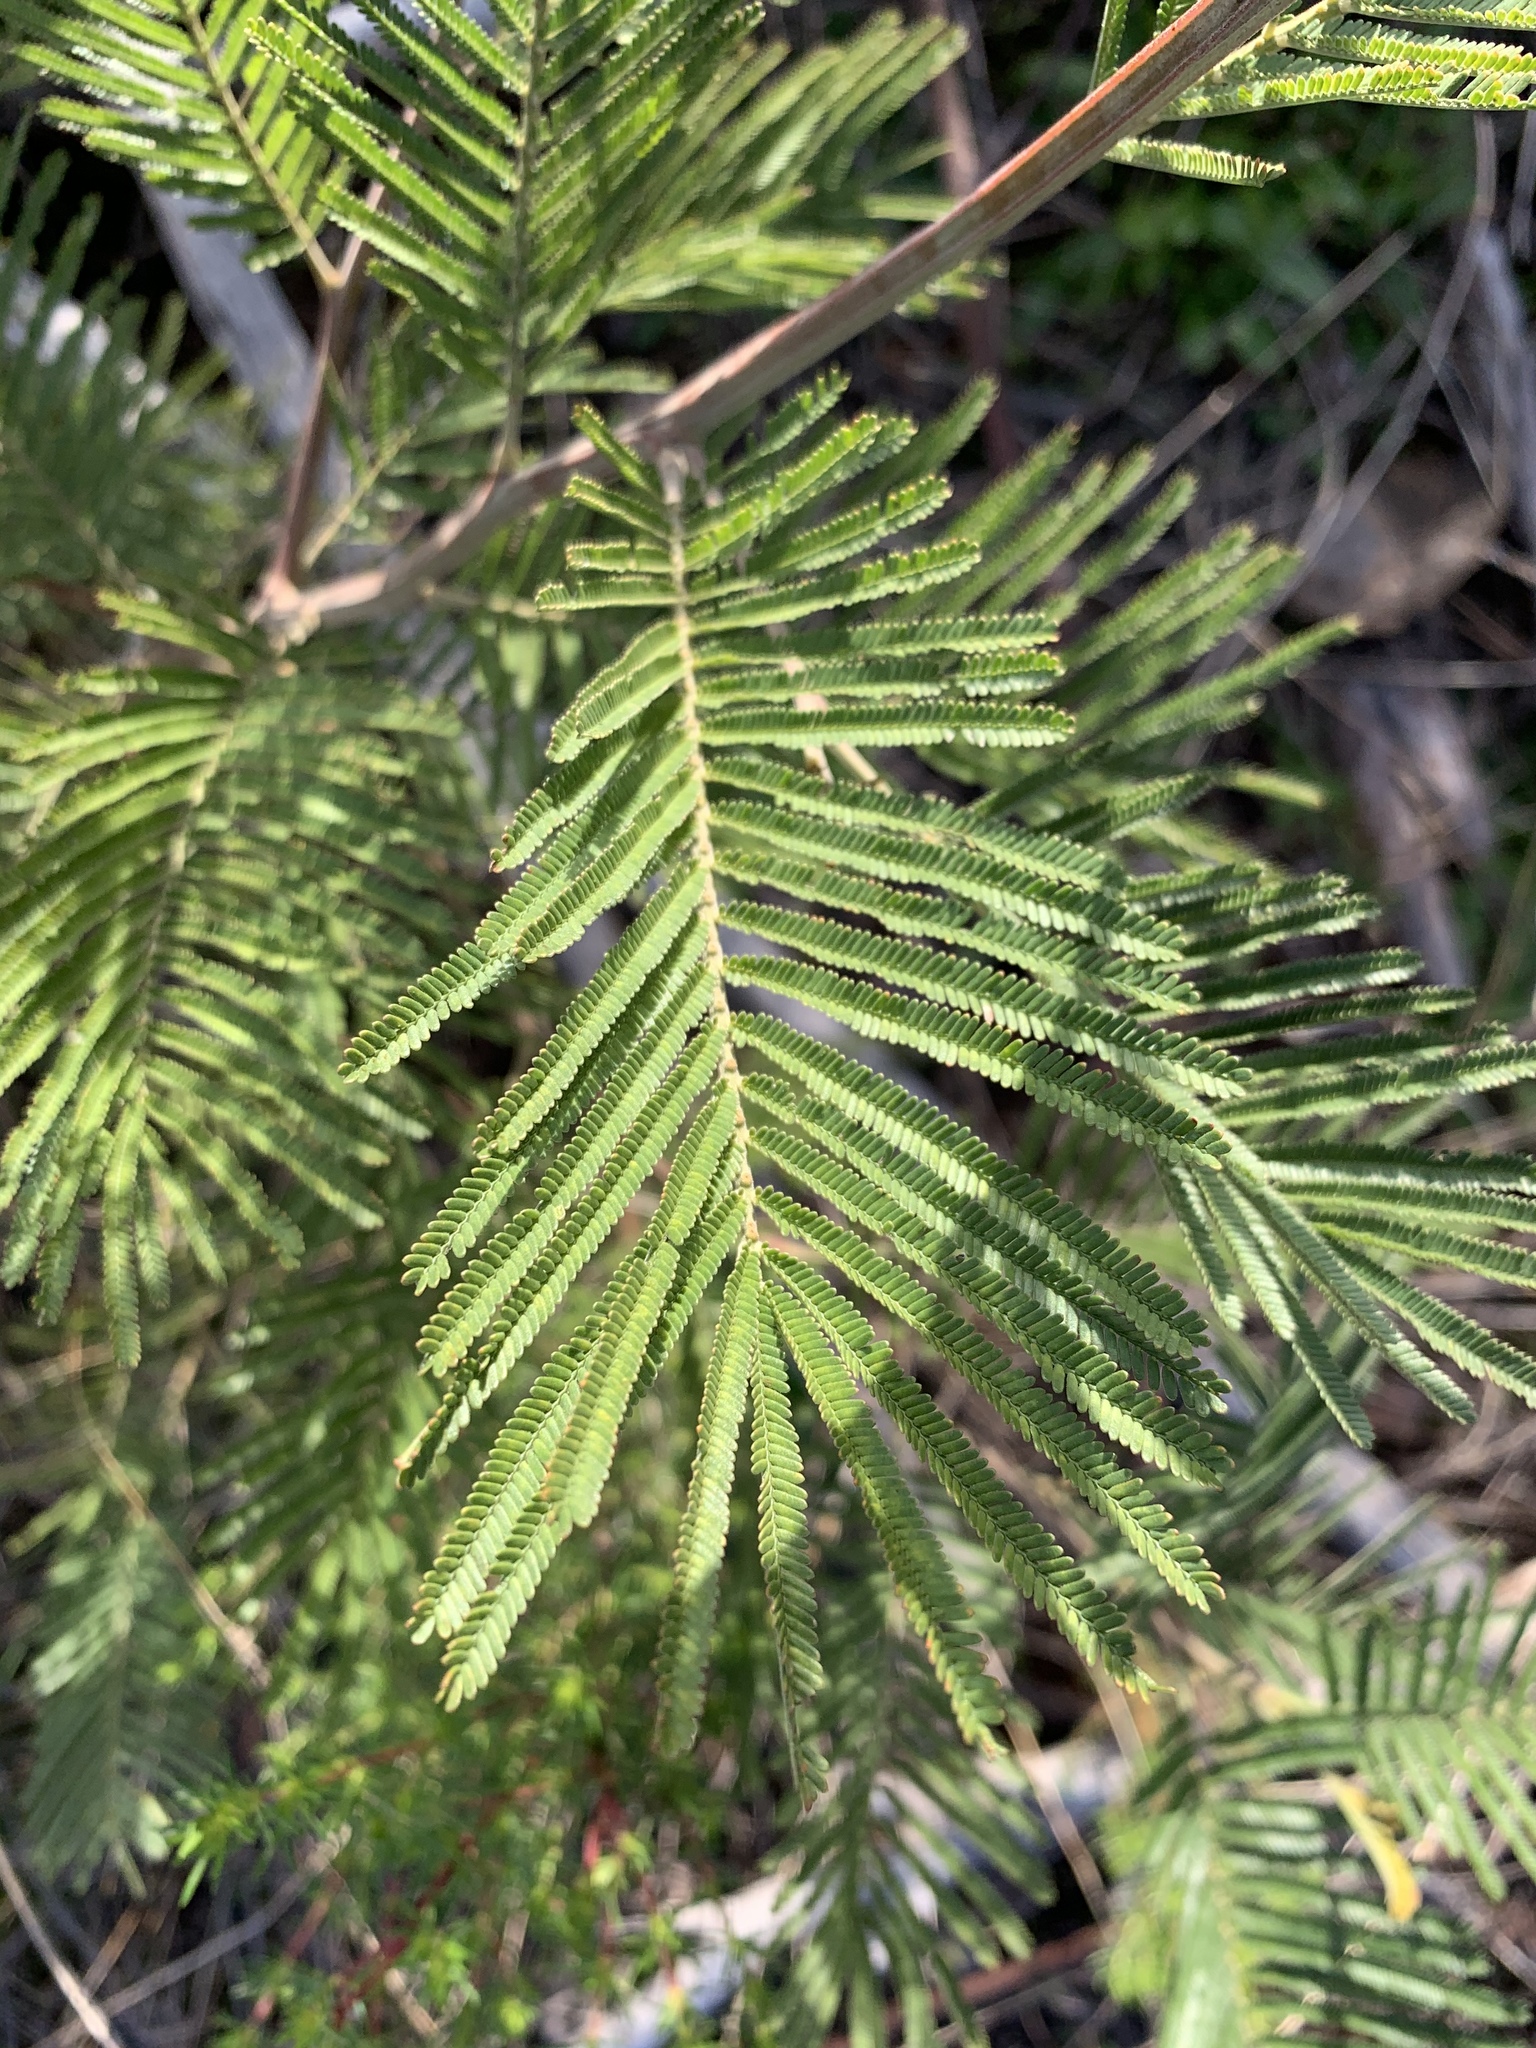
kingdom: Plantae
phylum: Tracheophyta
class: Magnoliopsida
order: Fabales
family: Fabaceae
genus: Acacia
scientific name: Acacia mearnsii
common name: Black wattle
